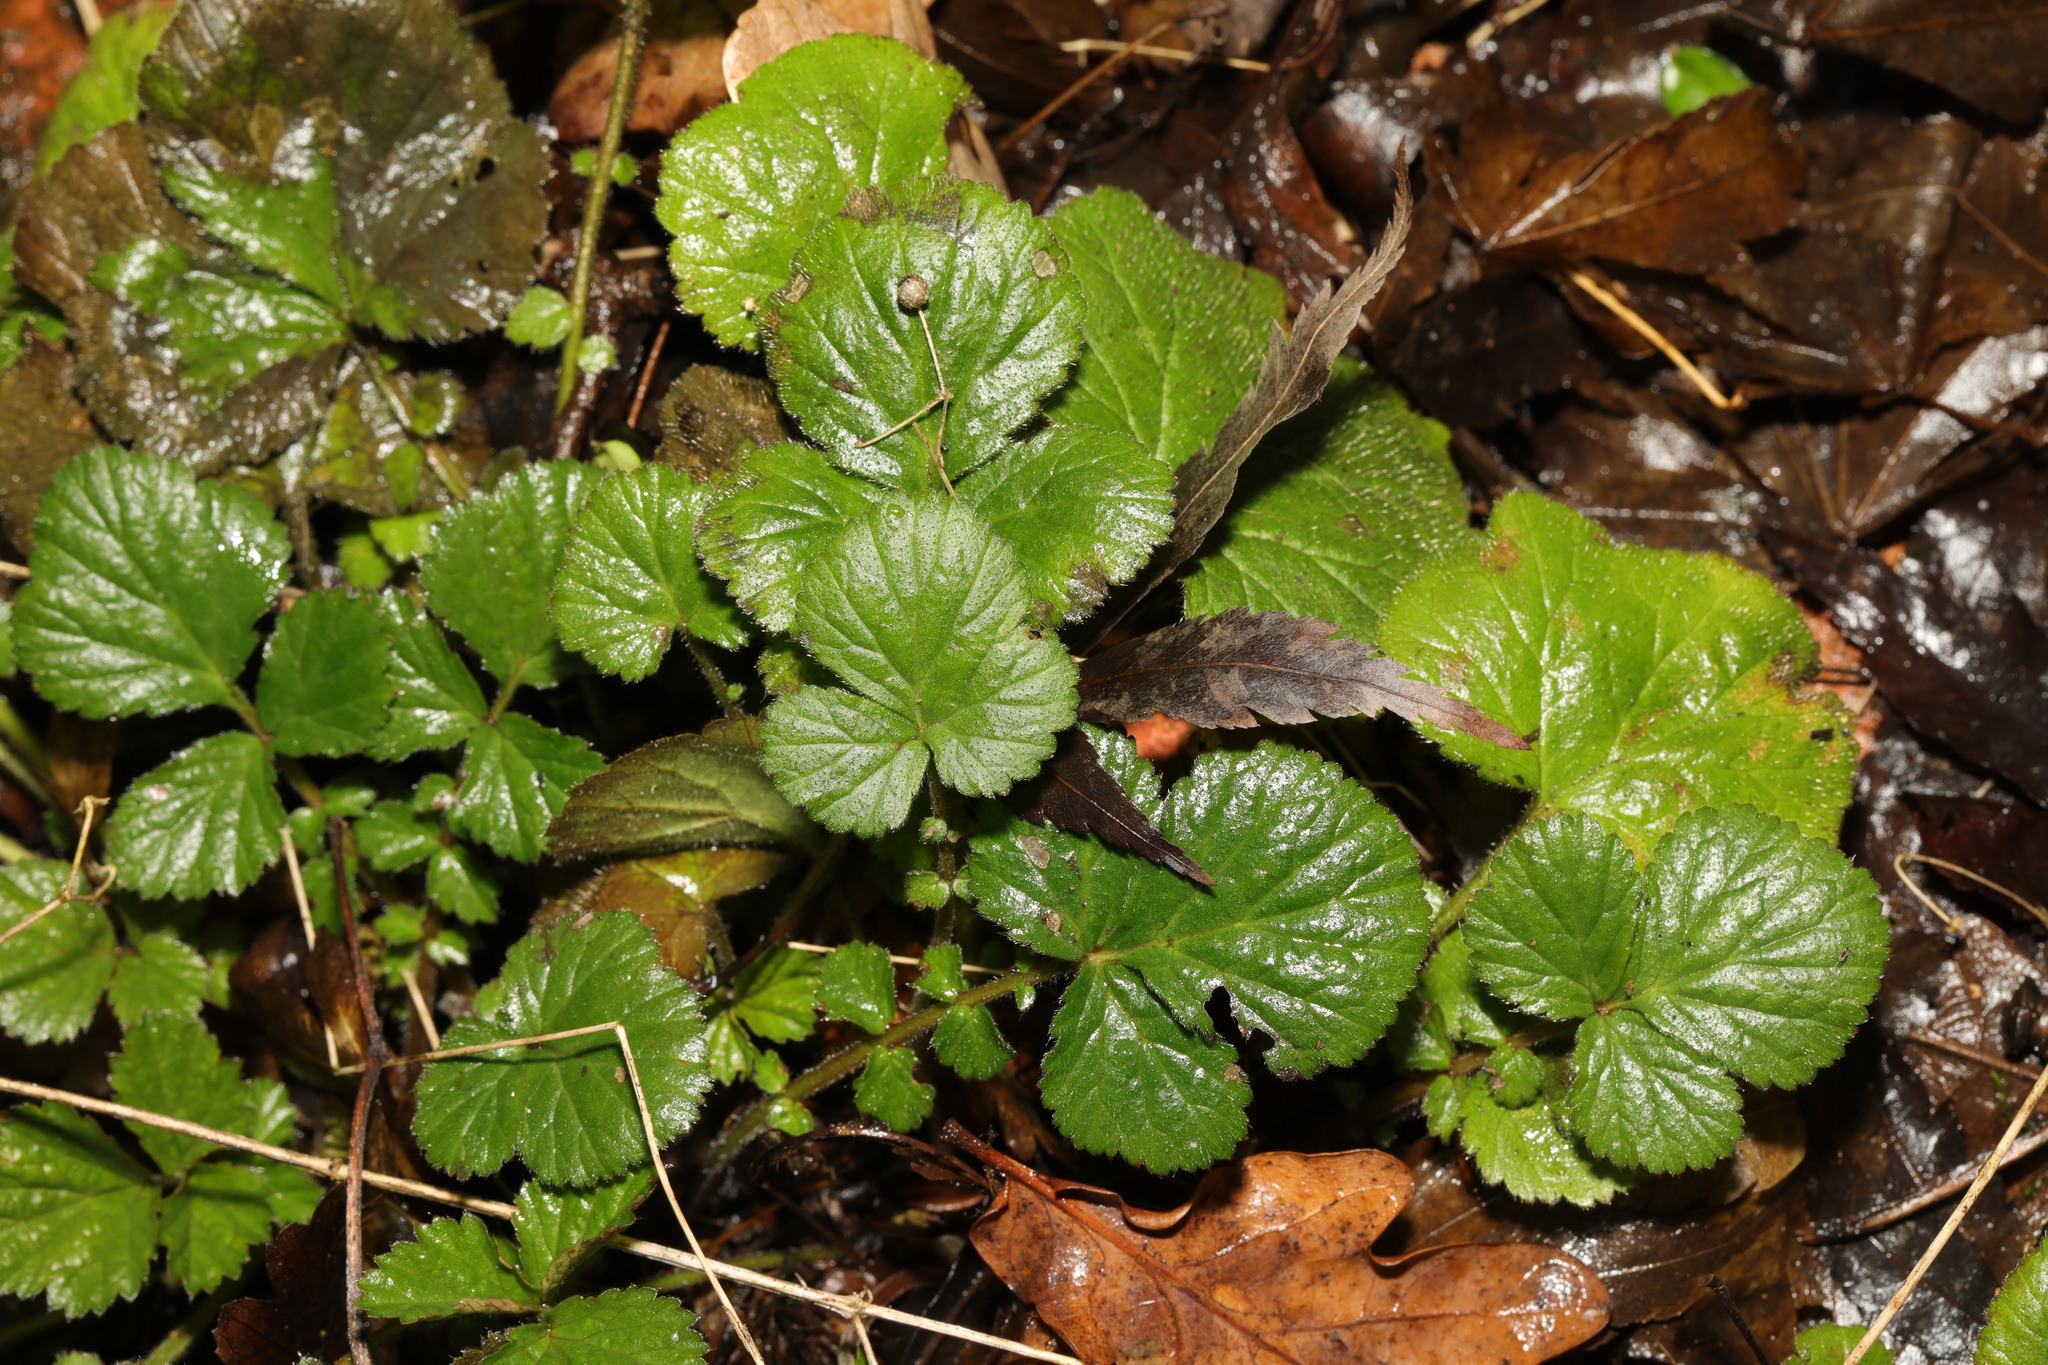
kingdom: Plantae
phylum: Tracheophyta
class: Magnoliopsida
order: Rosales
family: Rosaceae
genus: Geum
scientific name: Geum urbanum
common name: Wood avens
